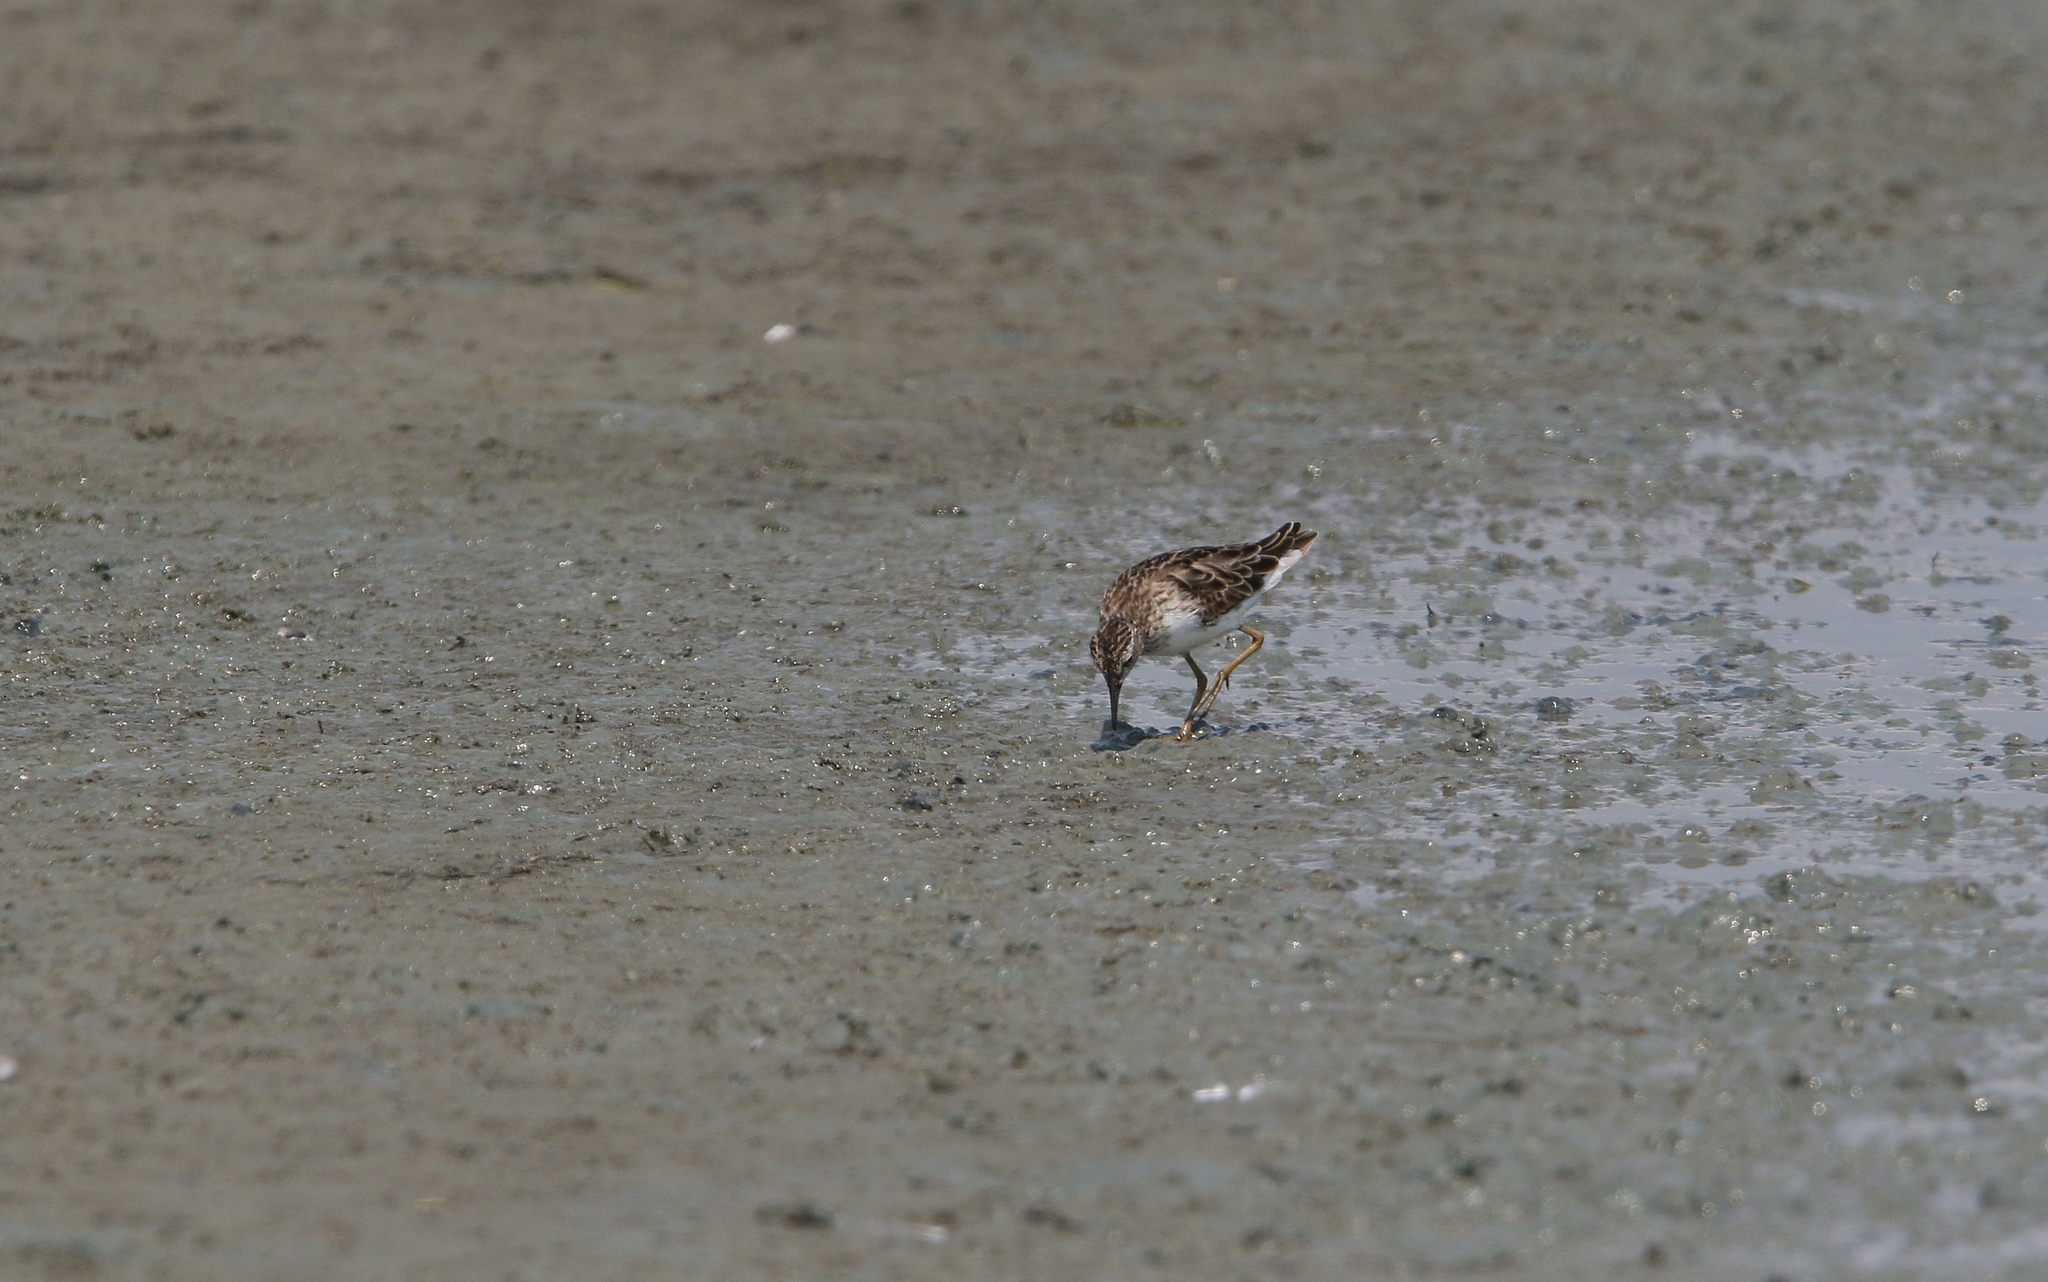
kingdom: Animalia
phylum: Chordata
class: Aves
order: Charadriiformes
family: Scolopacidae
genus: Calidris
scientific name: Calidris subminuta
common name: Long-toed stint
